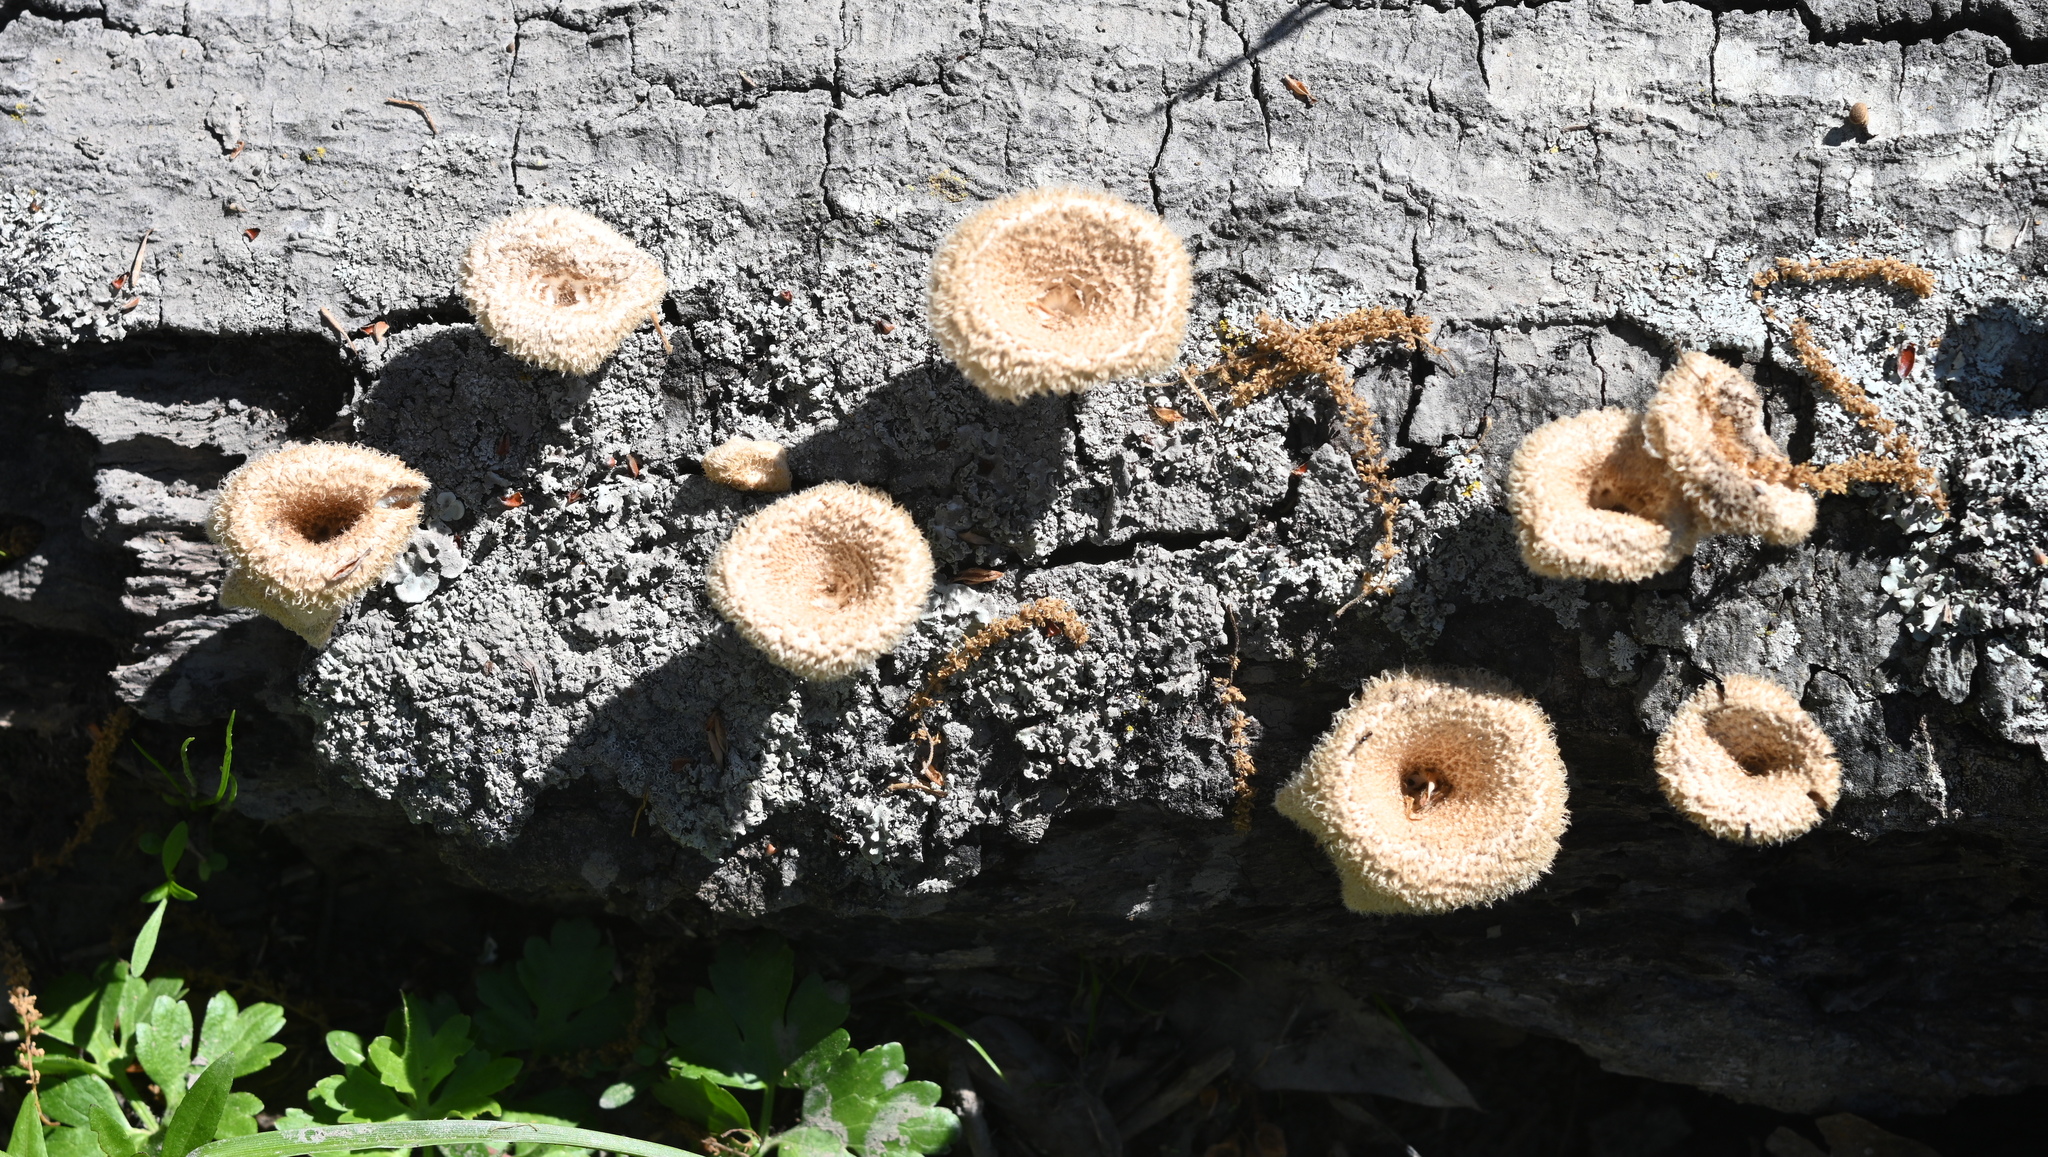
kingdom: Fungi
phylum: Basidiomycota
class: Agaricomycetes
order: Polyporales
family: Polyporaceae
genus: Lentinus
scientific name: Lentinus crinitus
